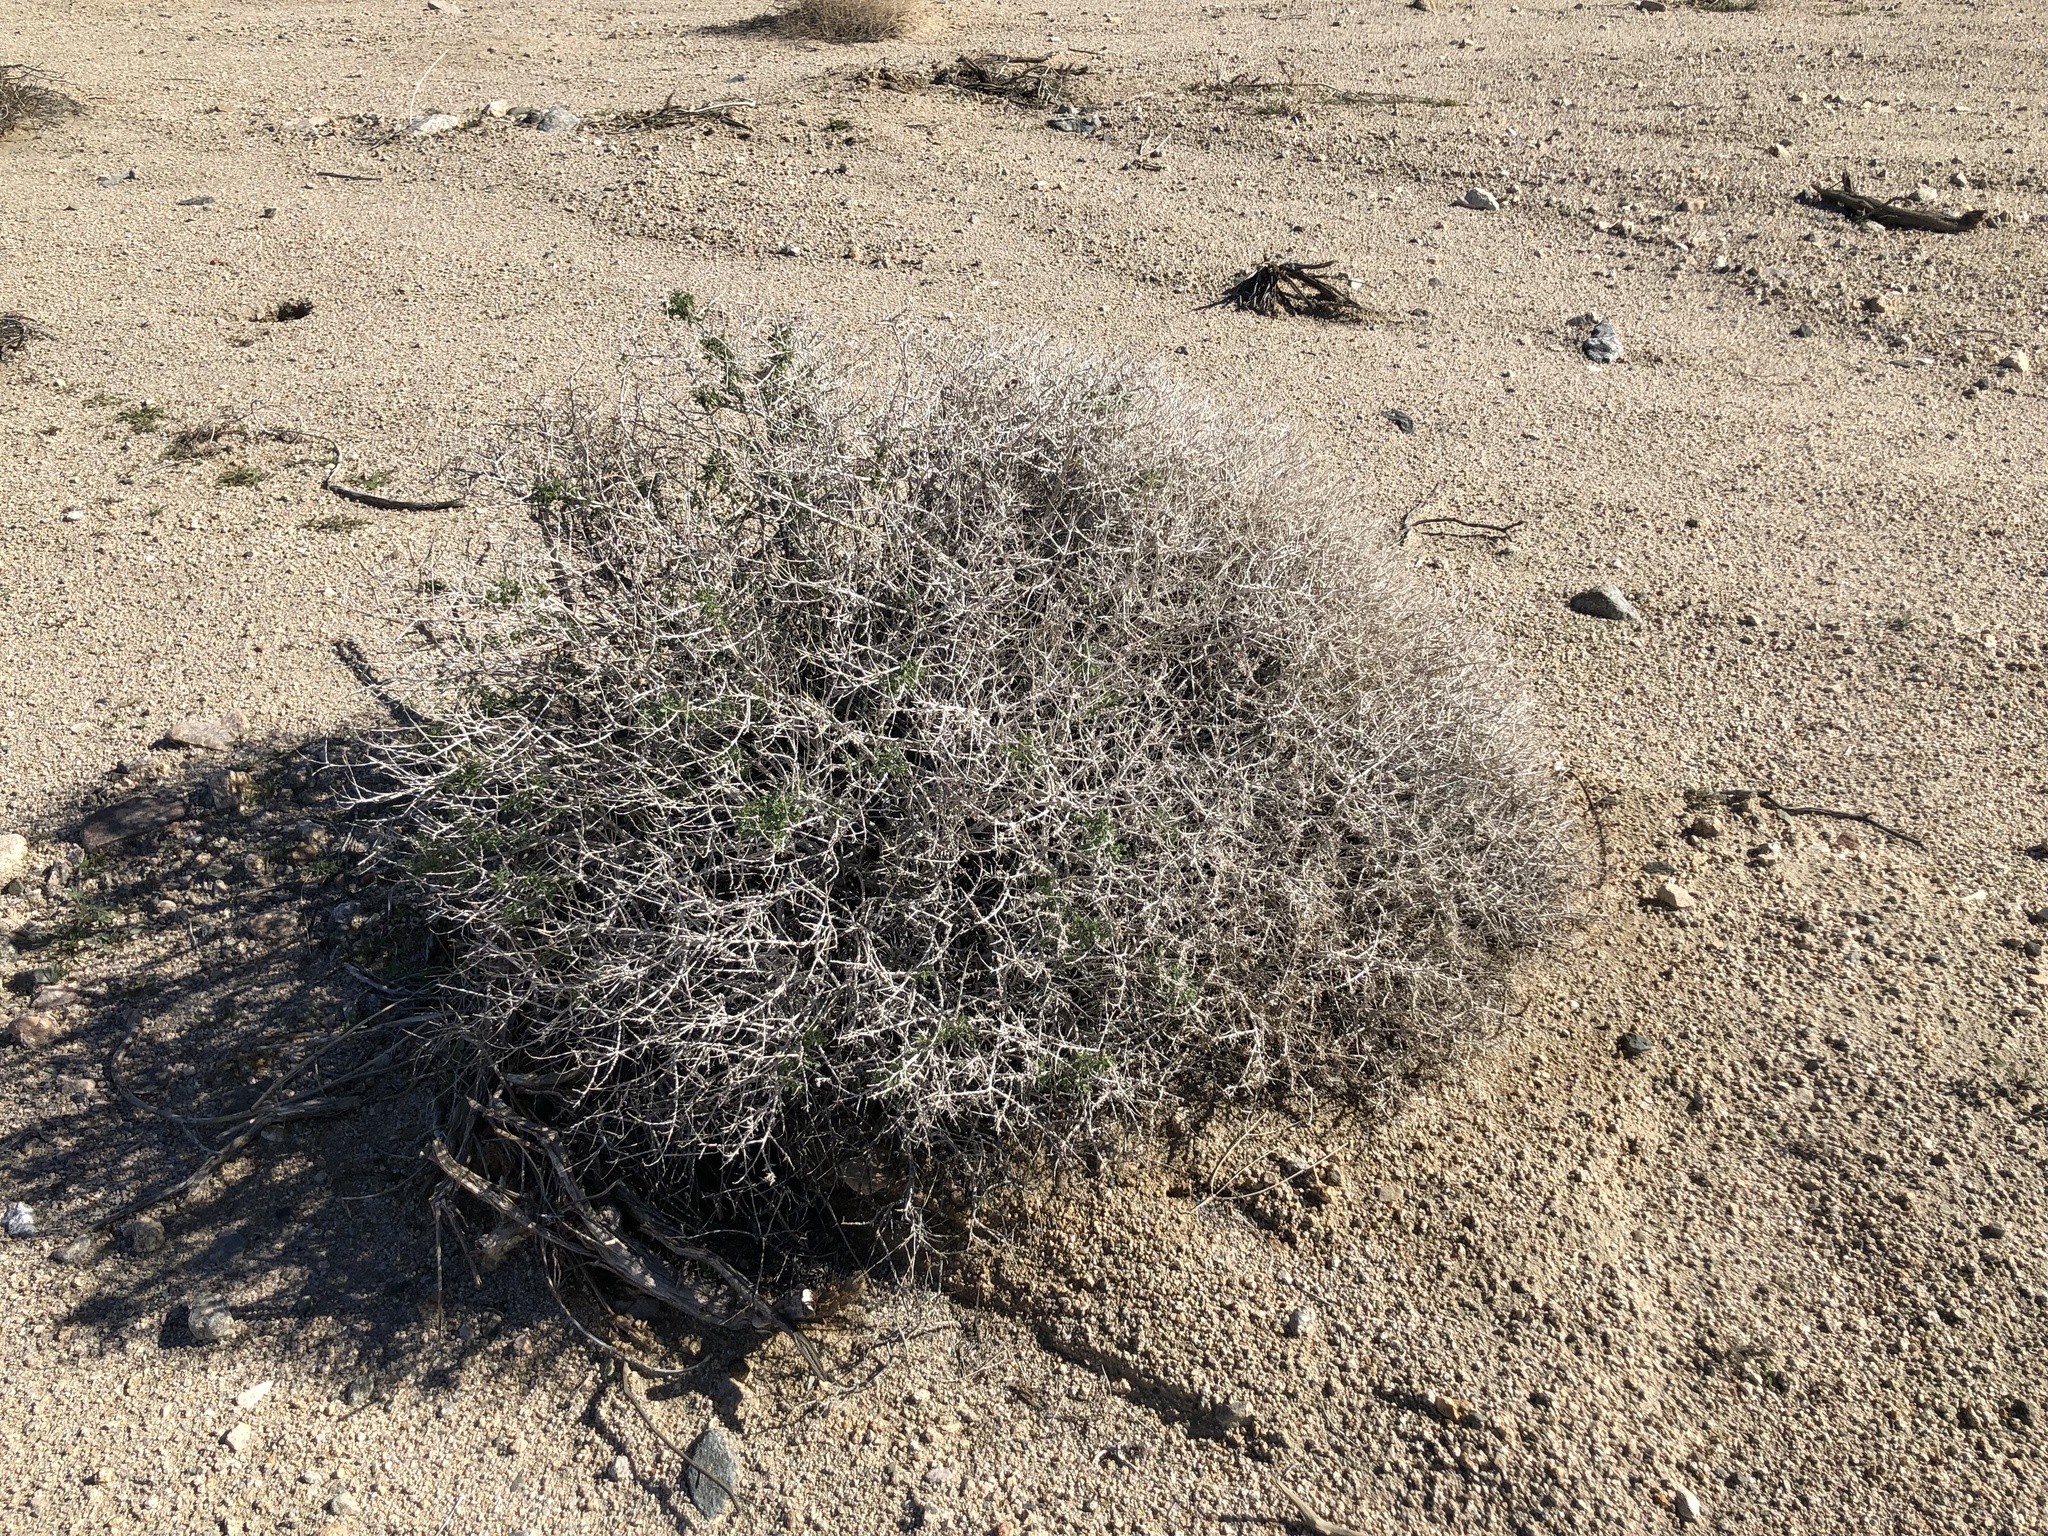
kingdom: Plantae
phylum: Tracheophyta
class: Magnoliopsida
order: Asterales
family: Asteraceae
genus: Ambrosia
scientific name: Ambrosia dumosa
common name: Bur-sage
